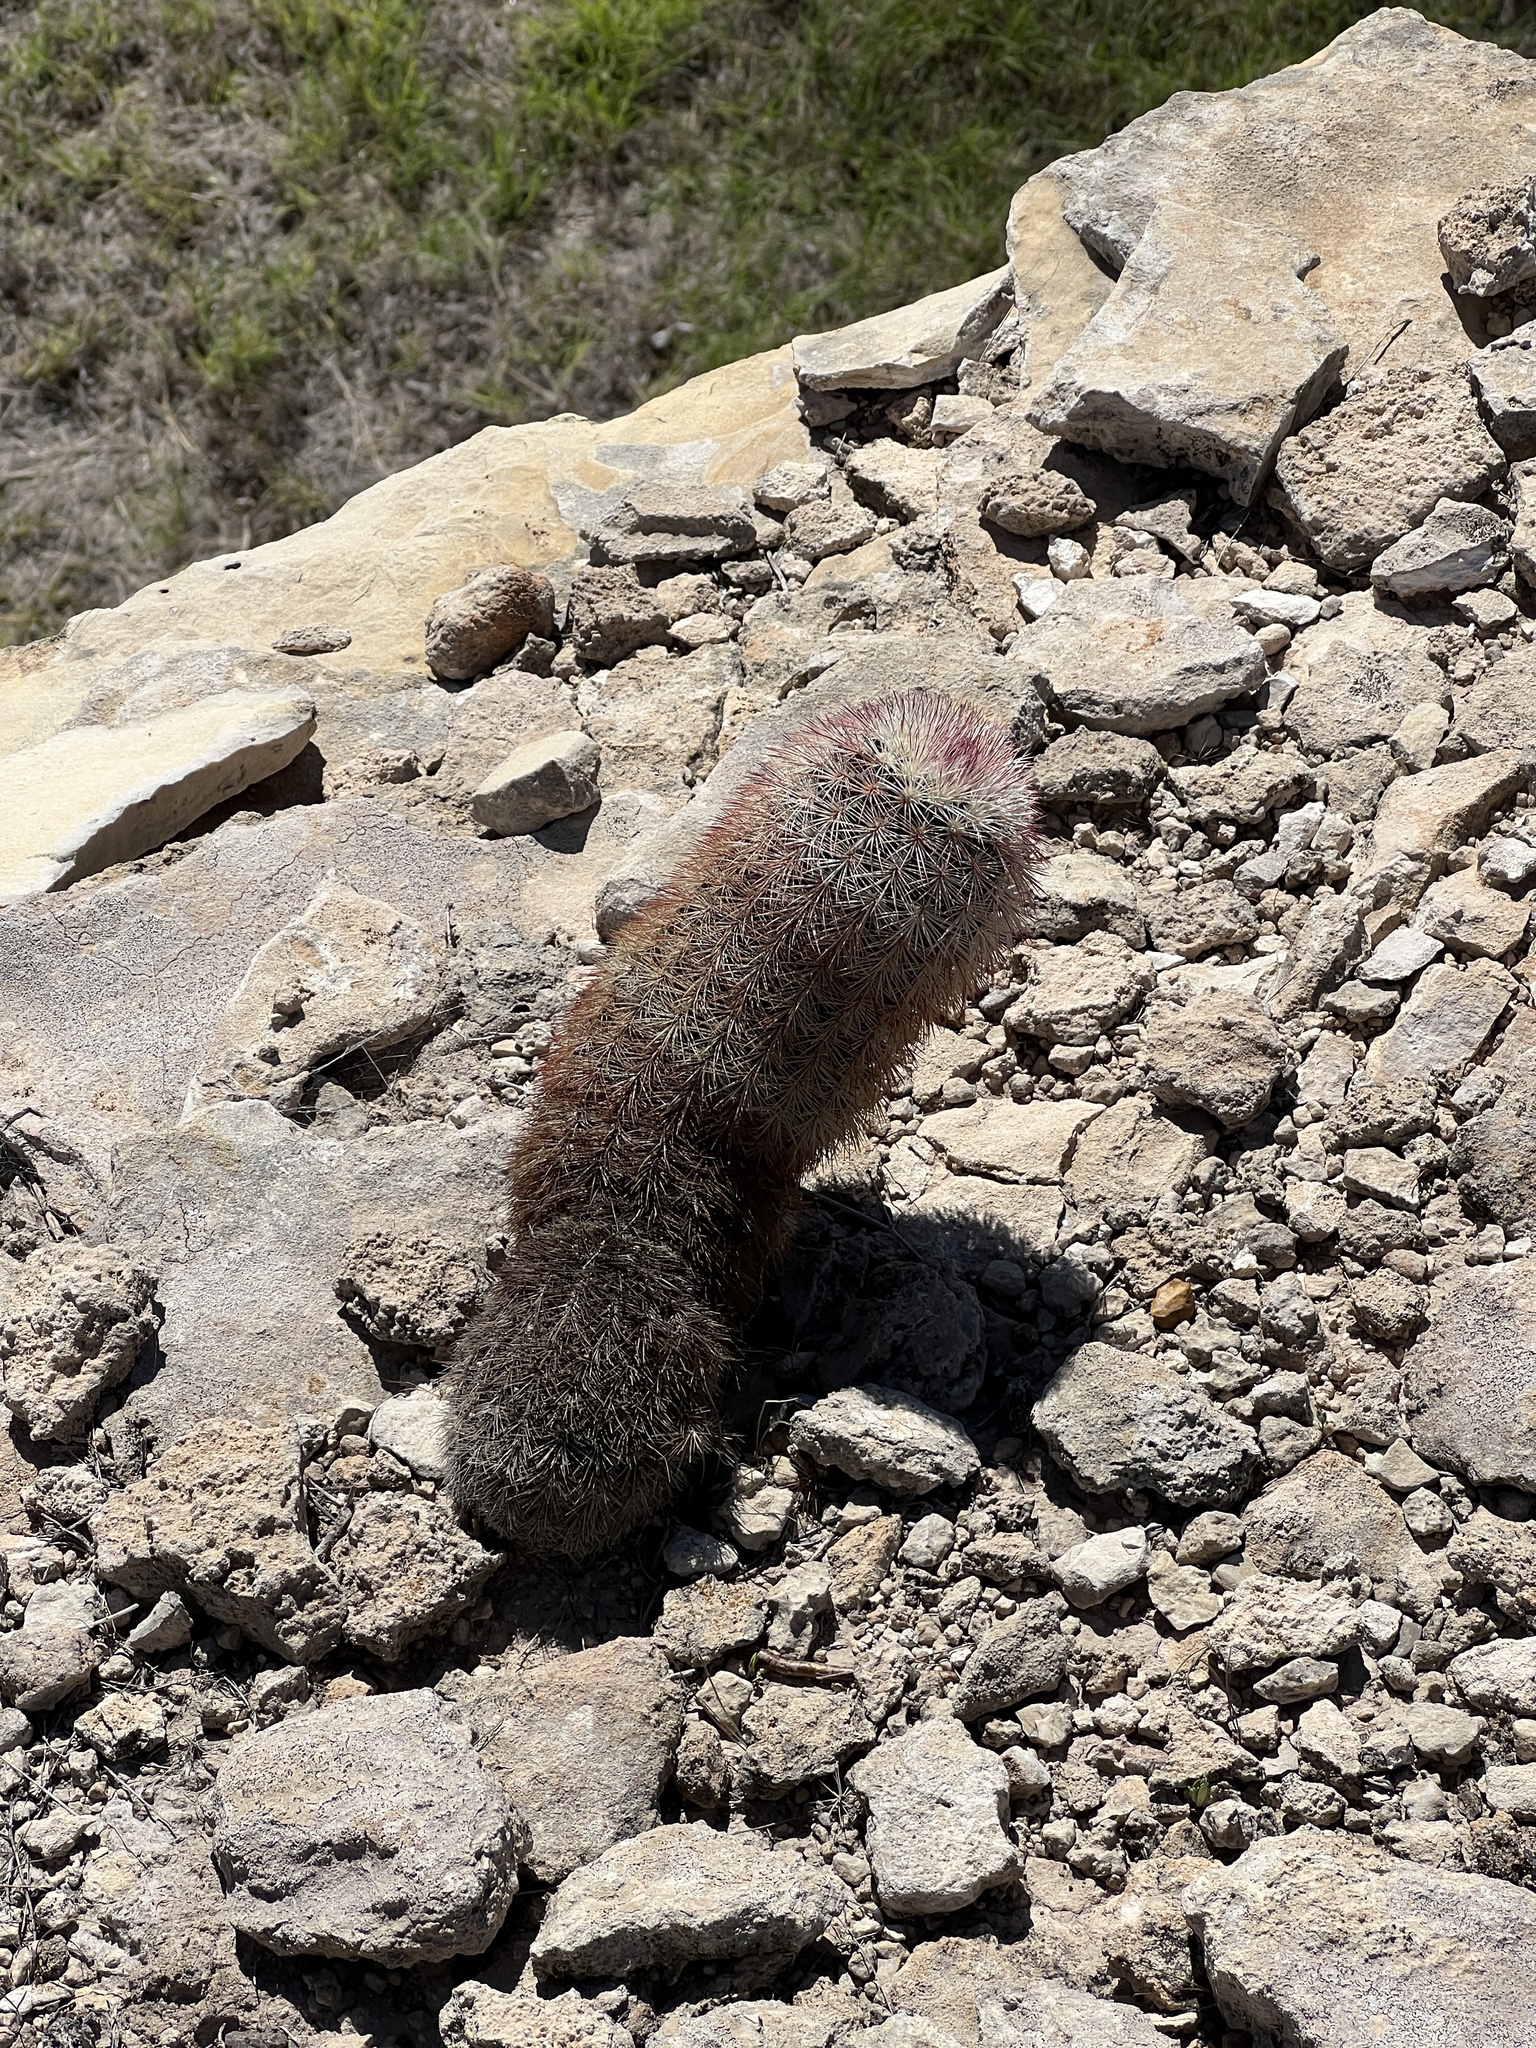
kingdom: Plantae
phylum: Tracheophyta
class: Magnoliopsida
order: Caryophyllales
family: Cactaceae
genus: Echinocereus
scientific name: Echinocereus dasyacanthus
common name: Spiny hedgehog cactus
